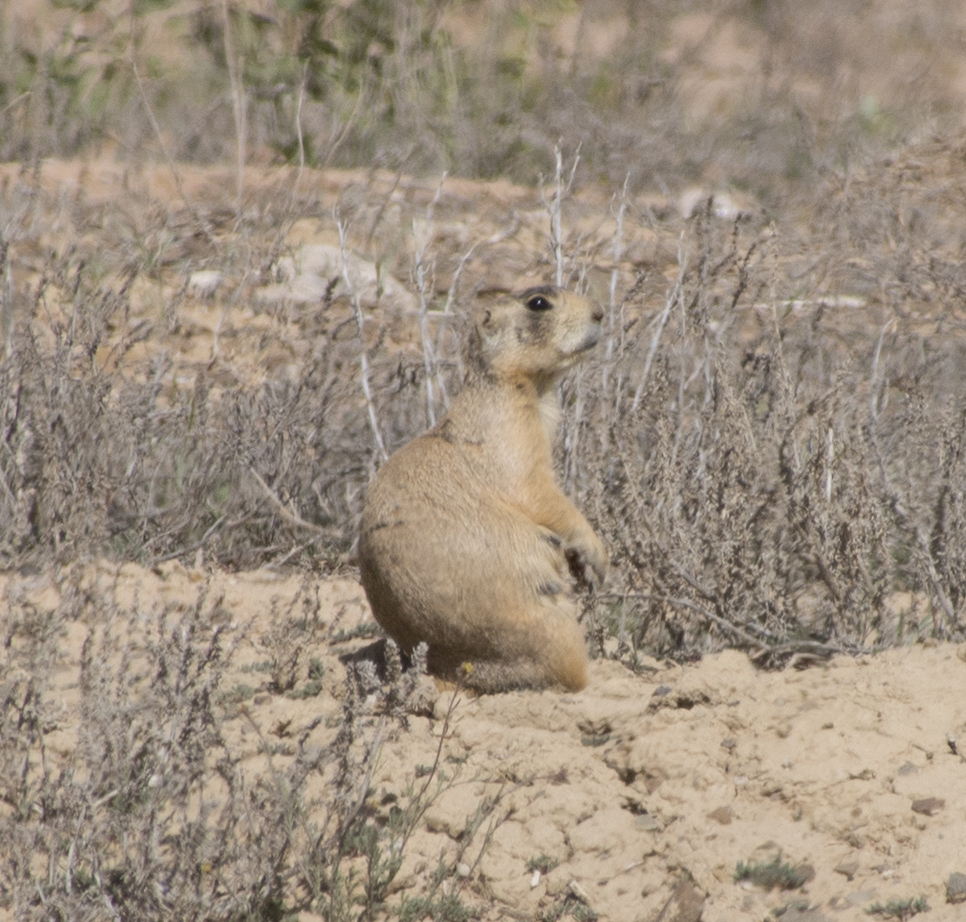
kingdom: Animalia
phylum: Chordata
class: Mammalia
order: Rodentia
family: Sciuridae
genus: Cynomys
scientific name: Cynomys leucurus
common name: White-tailed prairie dog
